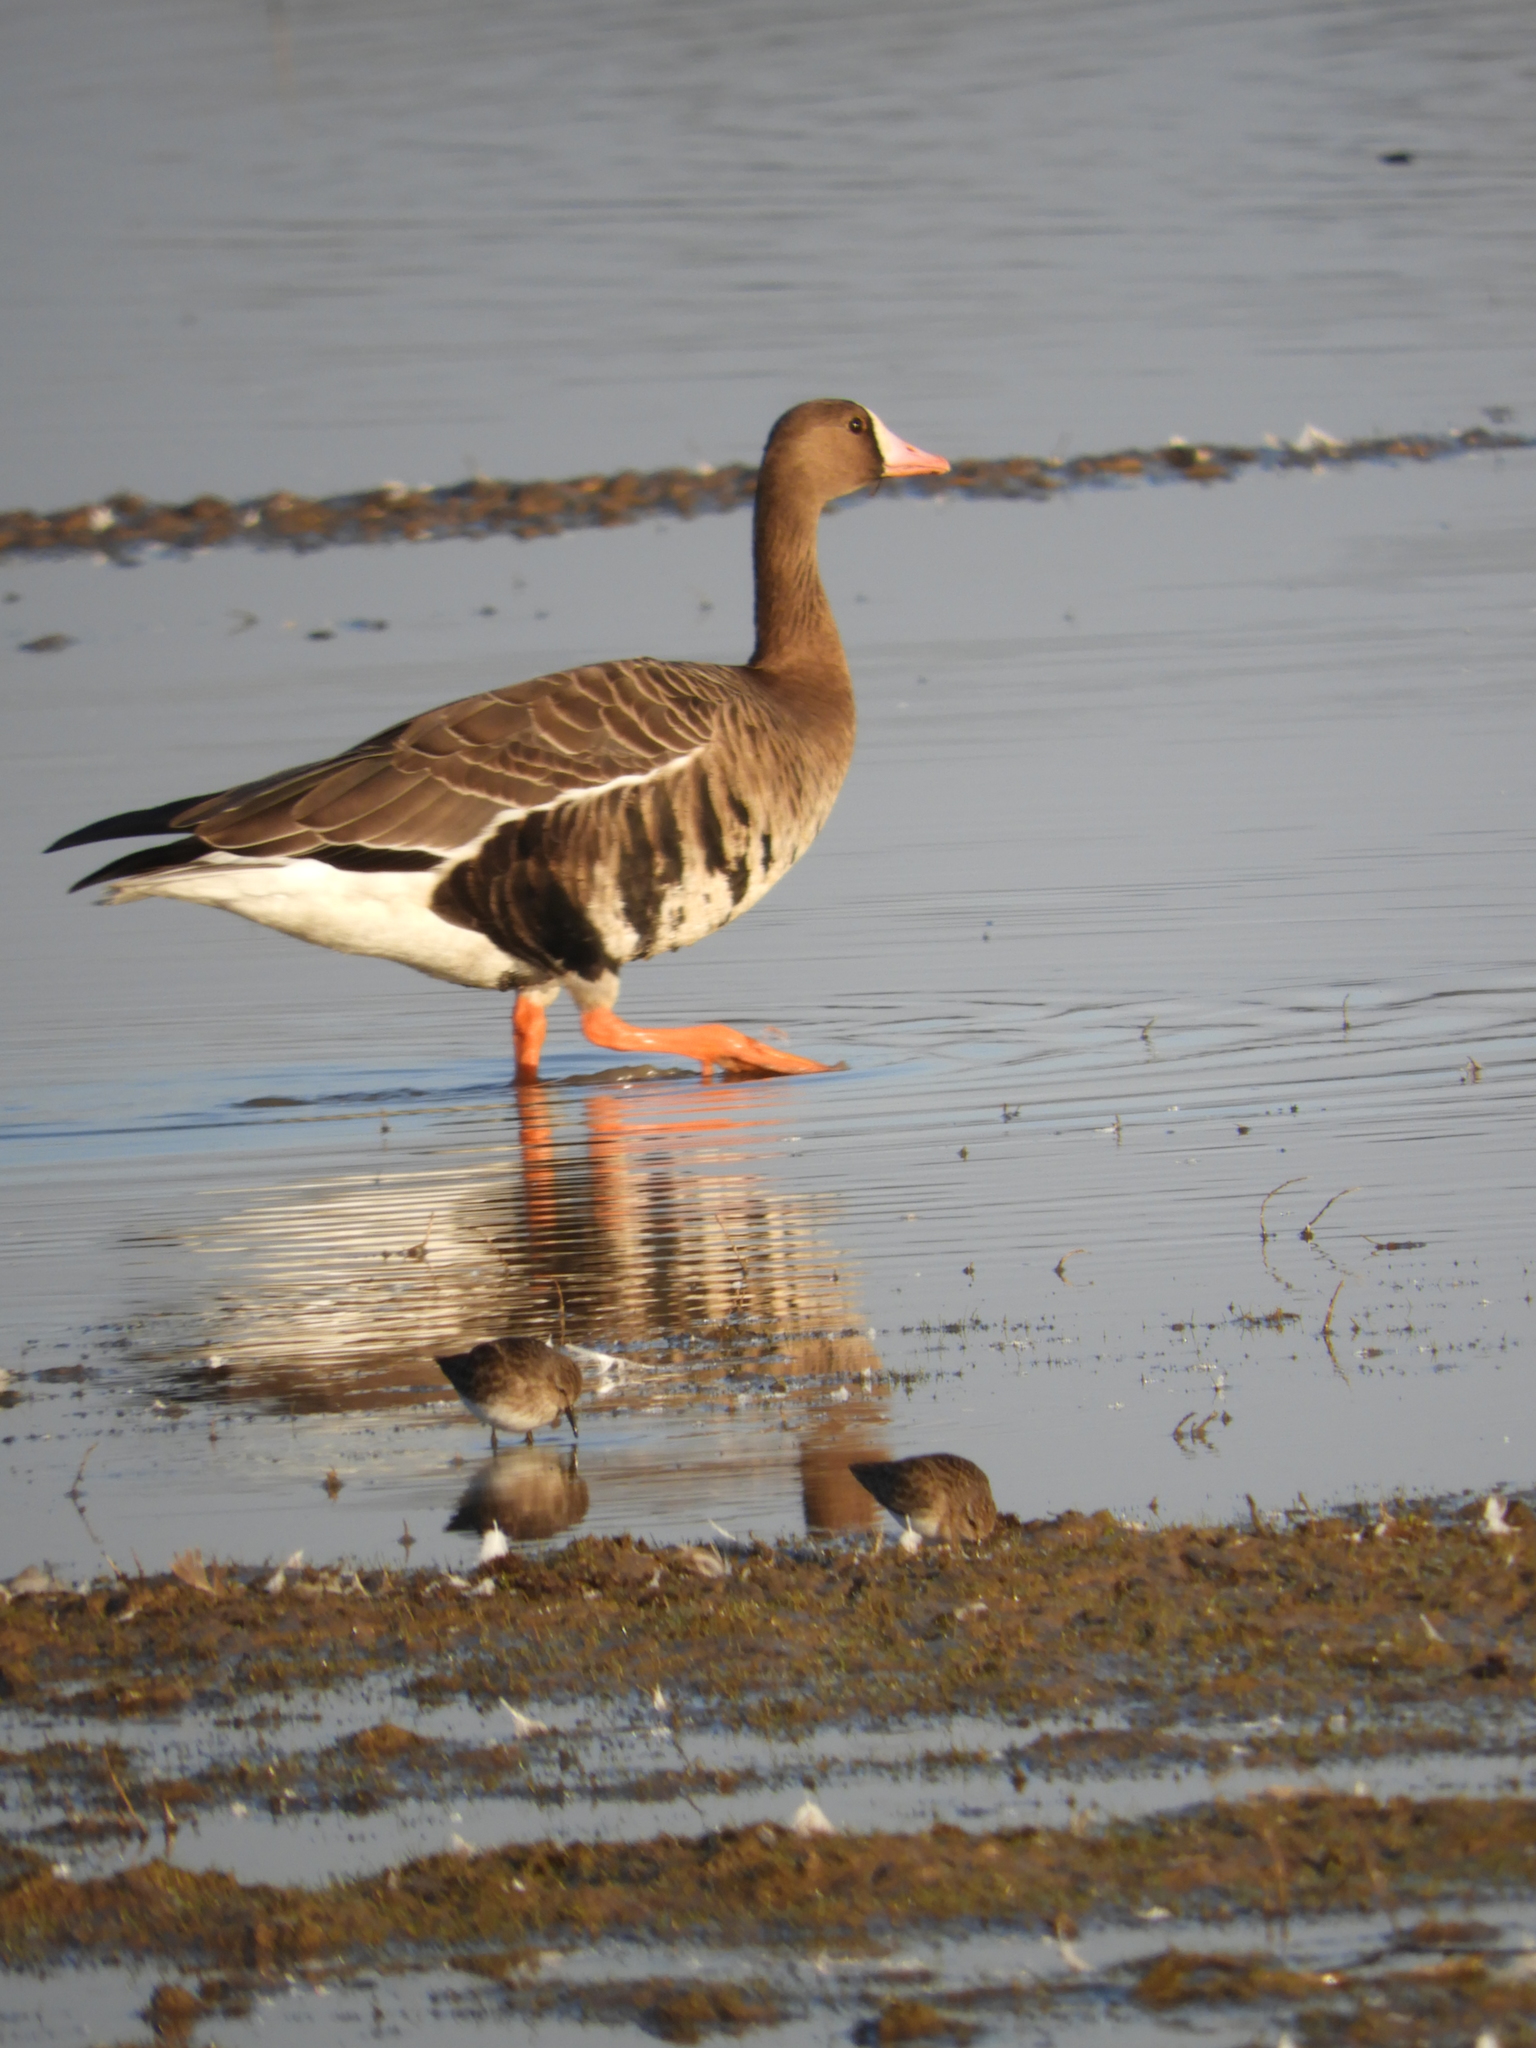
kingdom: Animalia
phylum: Chordata
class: Aves
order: Anseriformes
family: Anatidae
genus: Anser
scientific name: Anser albifrons
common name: Greater white-fronted goose
